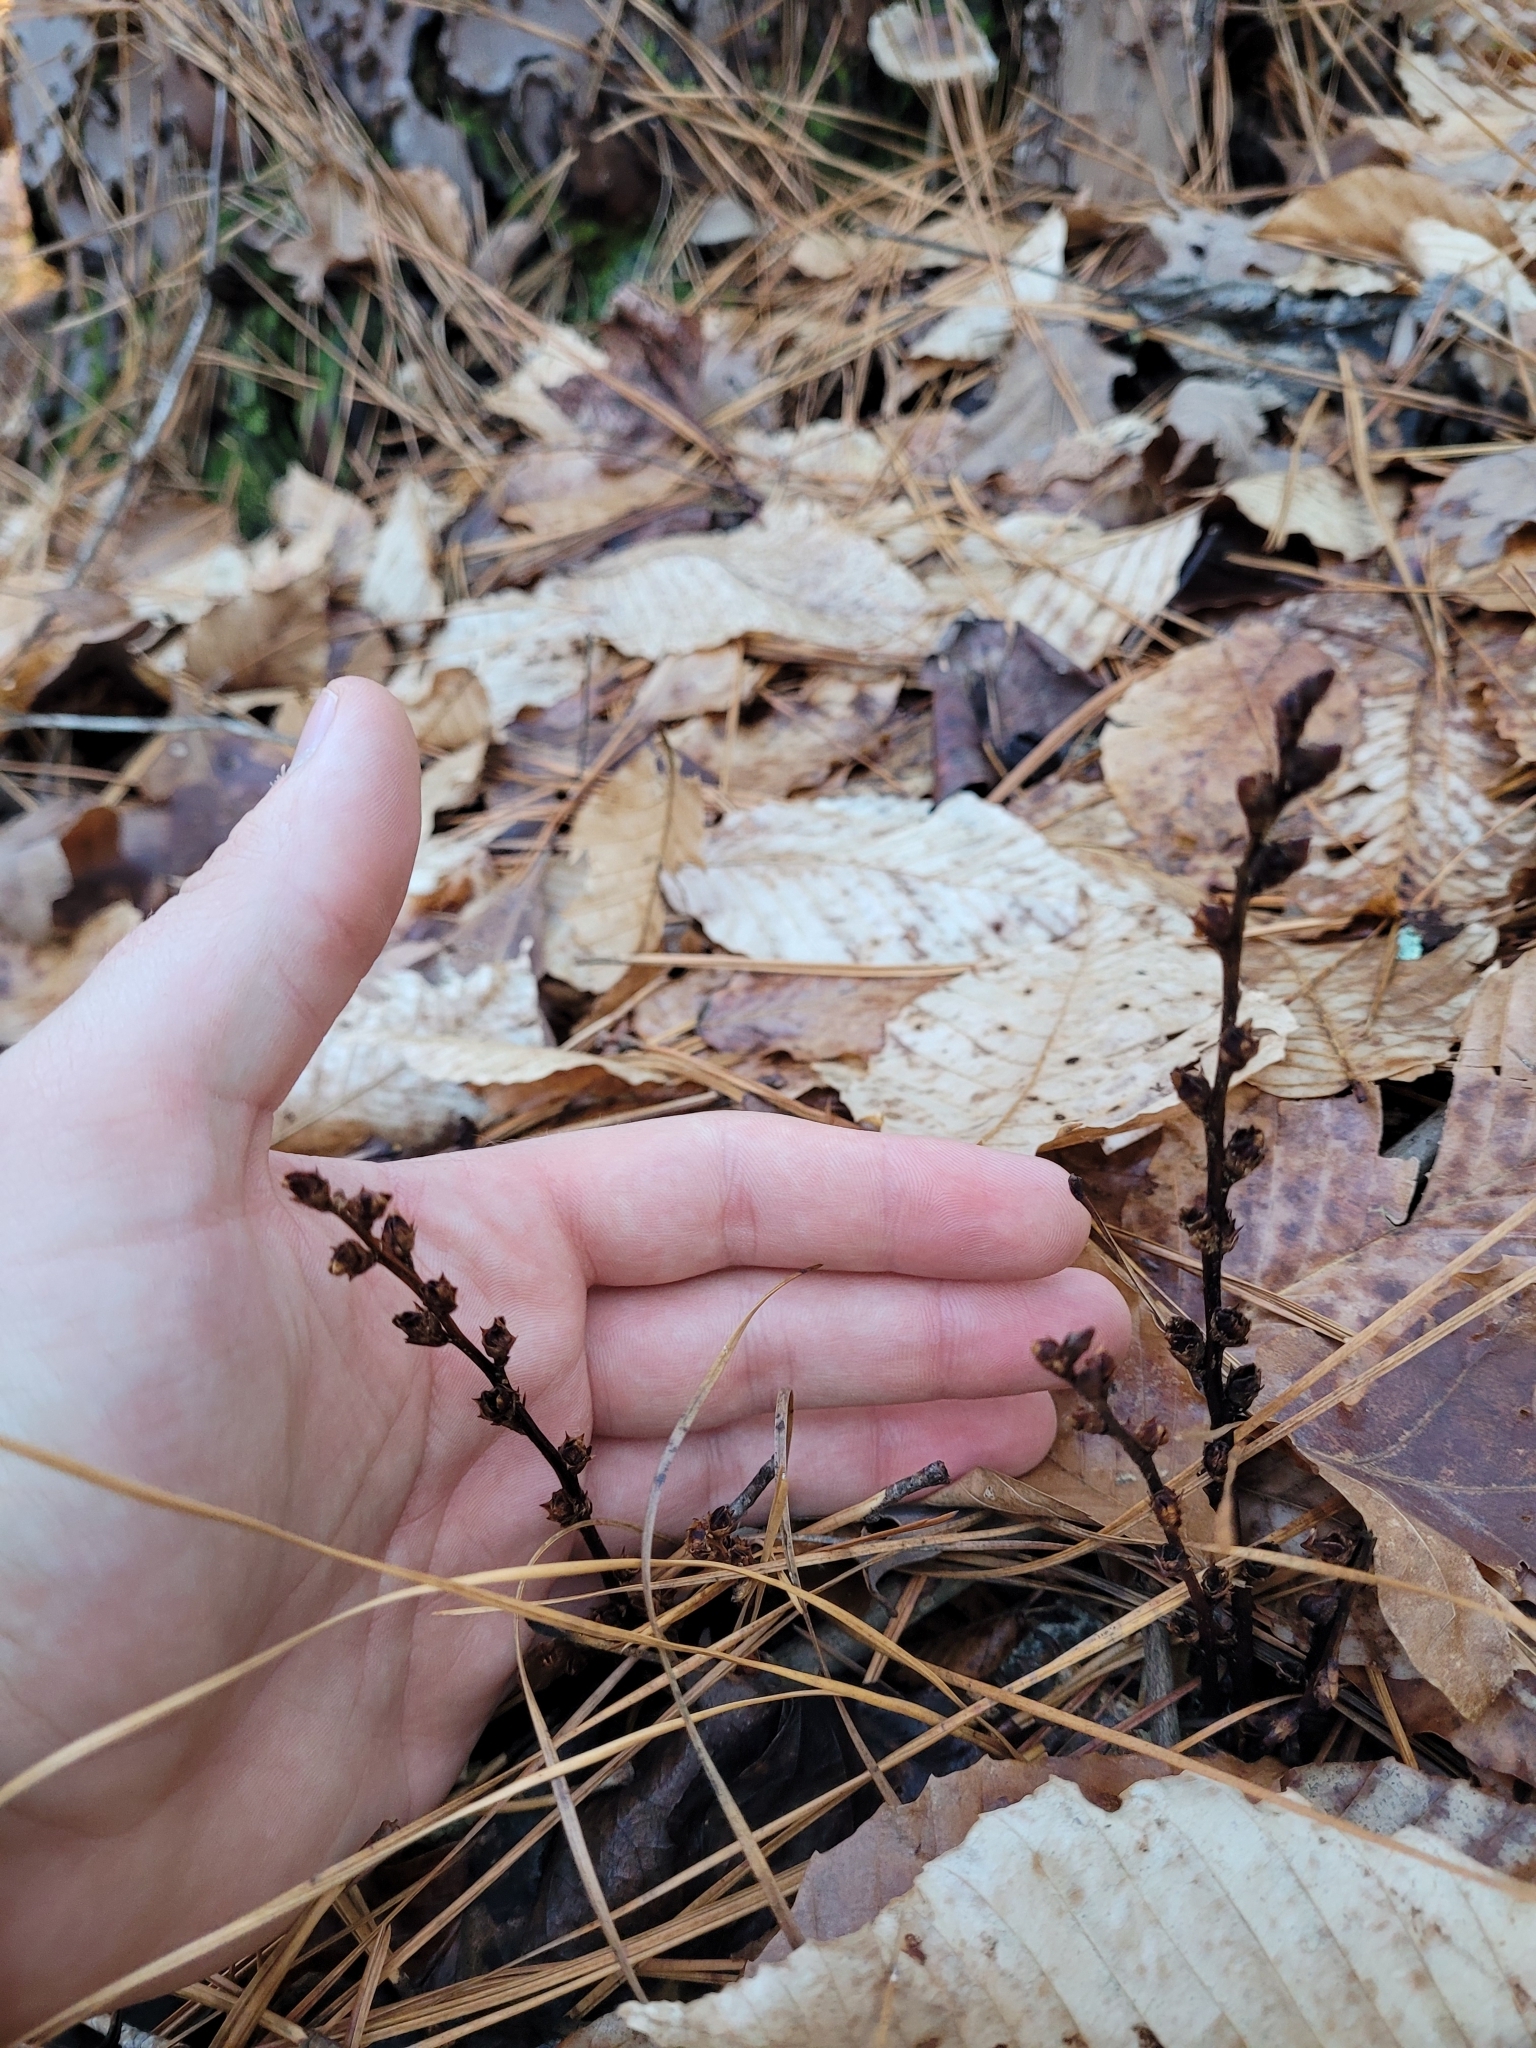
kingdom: Plantae
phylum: Tracheophyta
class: Magnoliopsida
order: Lamiales
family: Orobanchaceae
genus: Epifagus
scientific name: Epifagus virginiana
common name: Beechdrops
